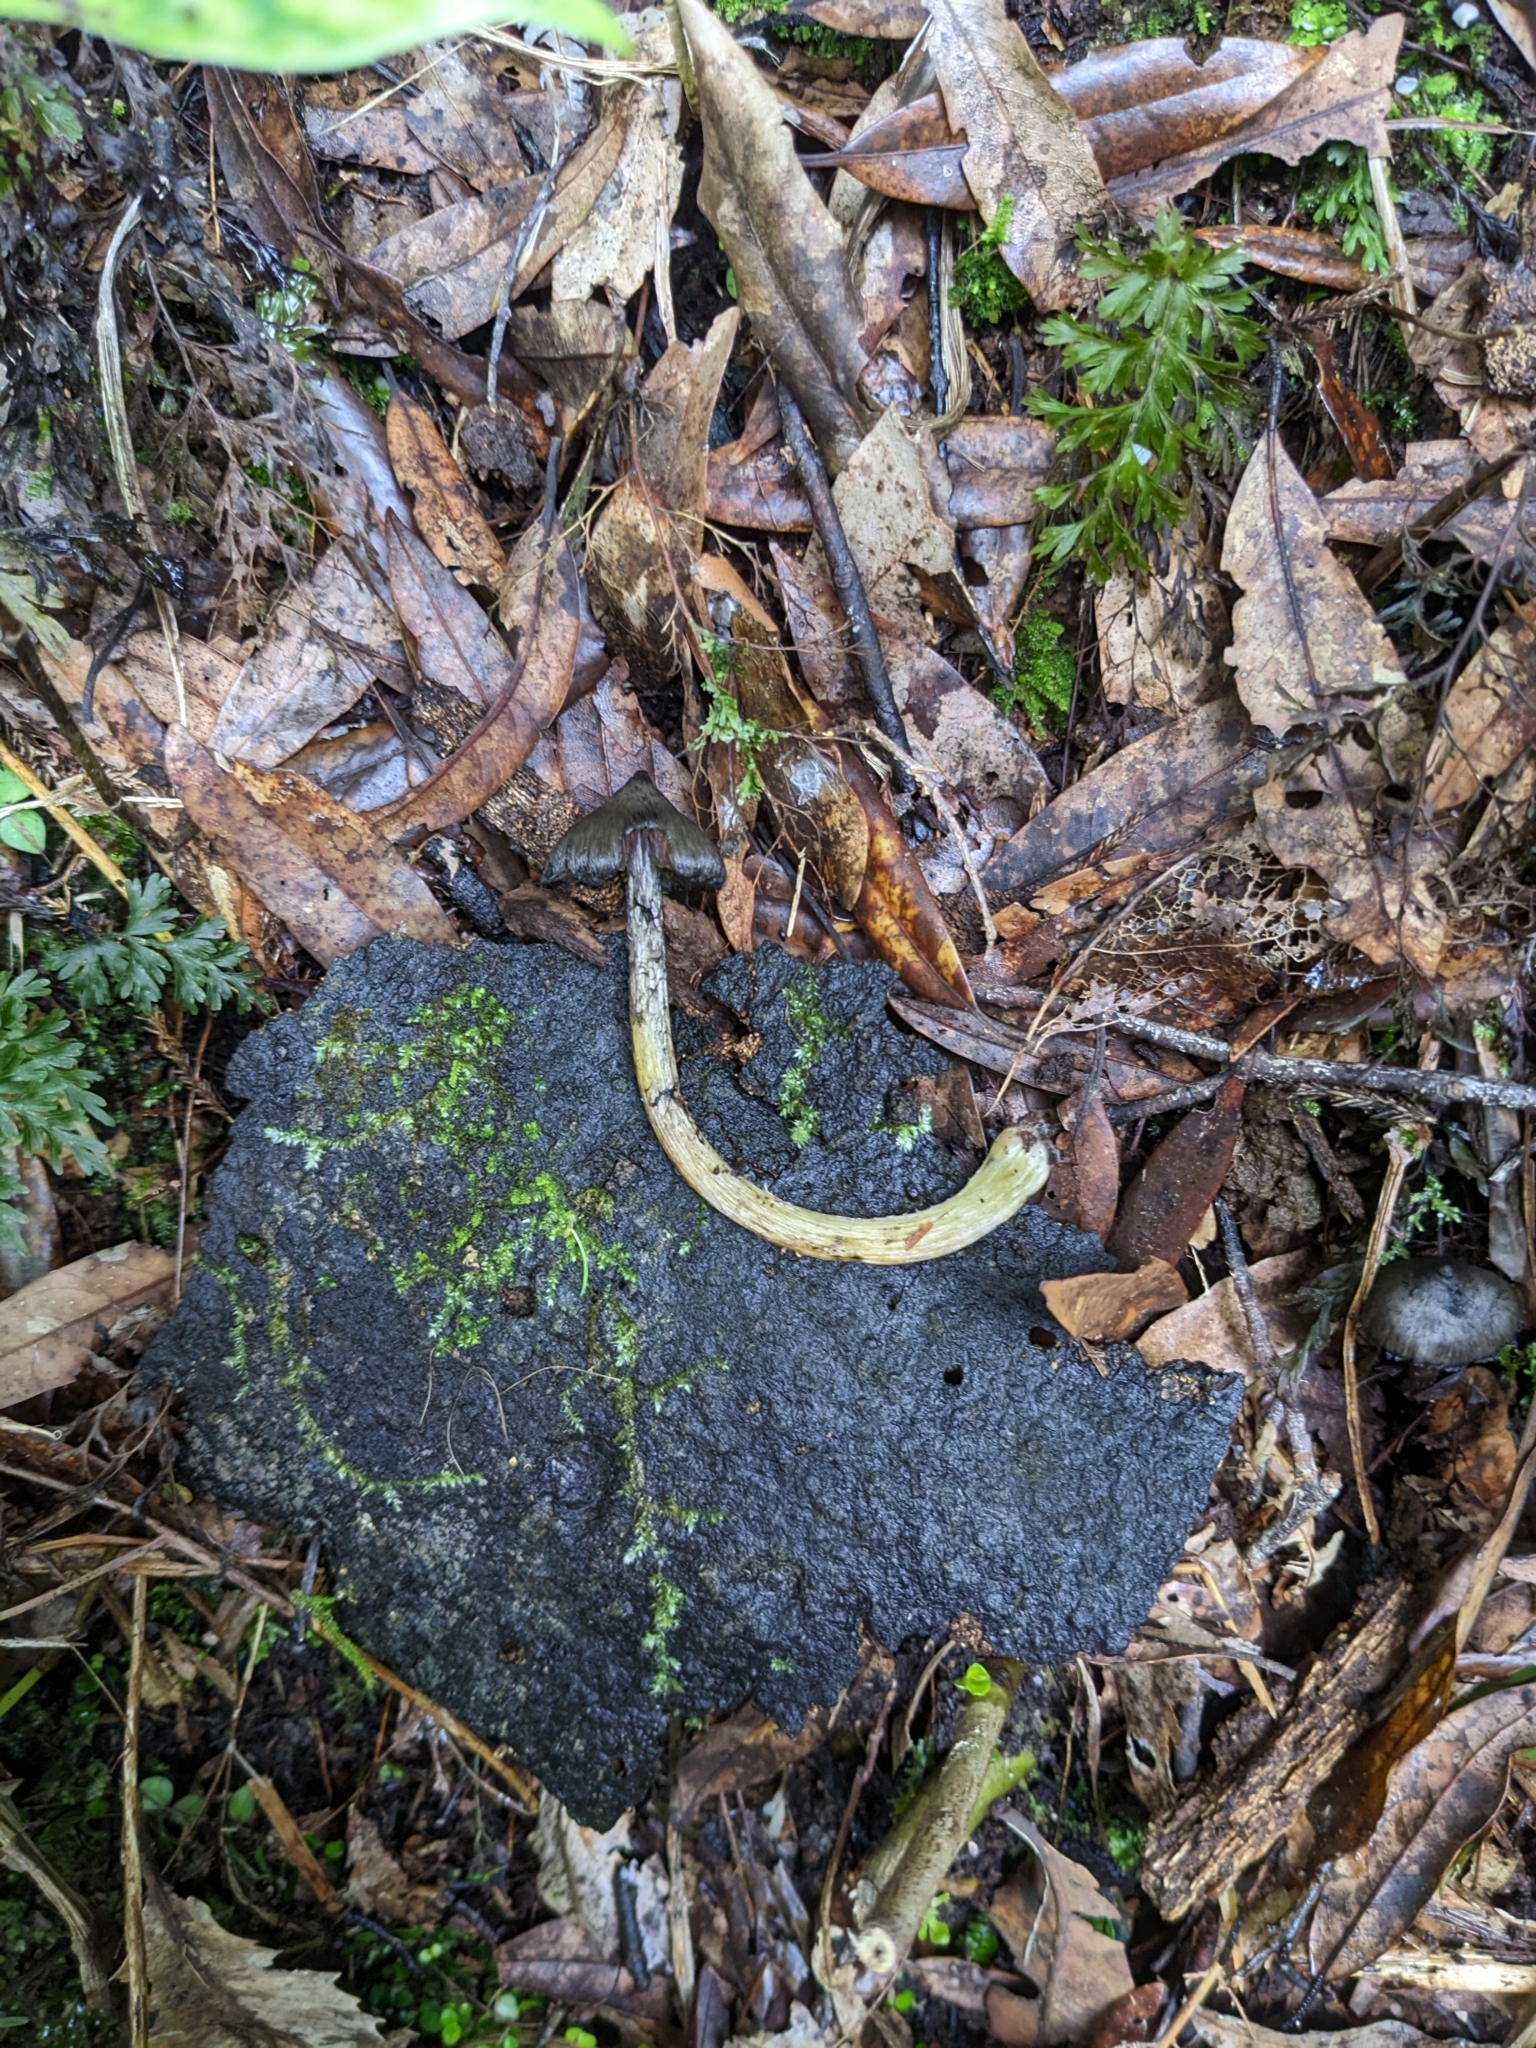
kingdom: Fungi
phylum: Basidiomycota
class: Agaricomycetes
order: Agaricales
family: Hygrophoraceae
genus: Hygrocybe
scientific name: Hygrocybe astatogala
